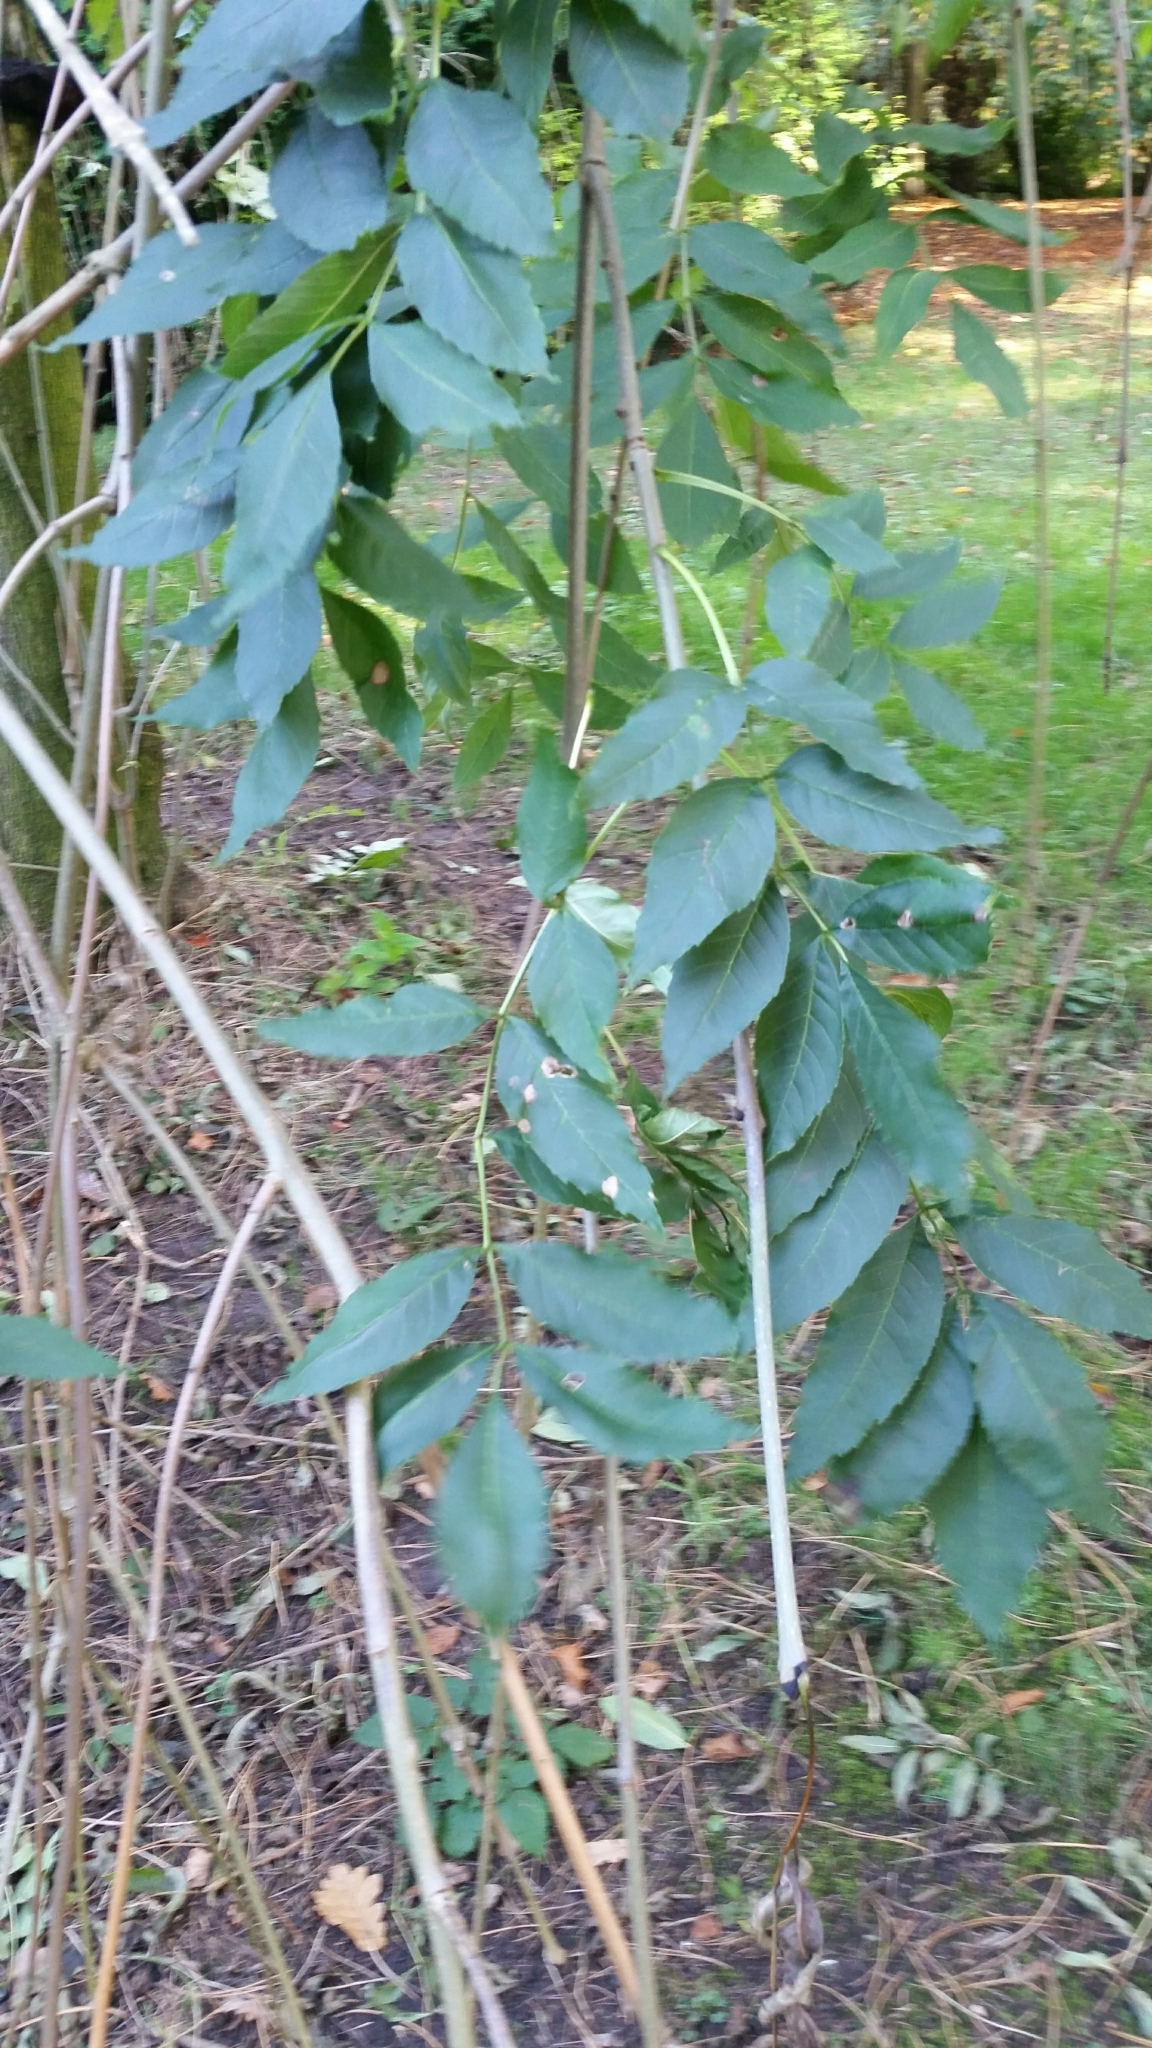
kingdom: Plantae
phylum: Tracheophyta
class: Magnoliopsida
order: Lamiales
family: Oleaceae
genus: Fraxinus
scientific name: Fraxinus excelsior
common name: European ash
